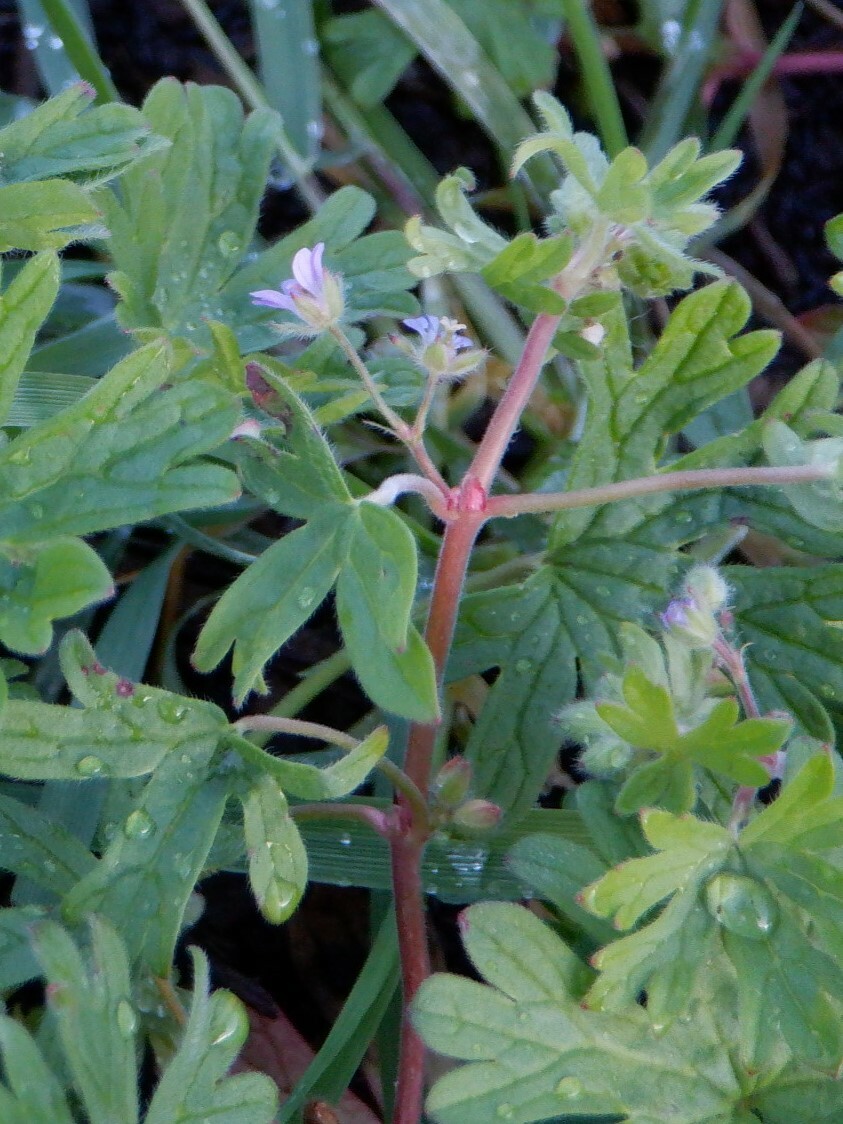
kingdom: Plantae
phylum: Tracheophyta
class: Magnoliopsida
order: Geraniales
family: Geraniaceae
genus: Geranium
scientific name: Geranium pusillum
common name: Small geranium
